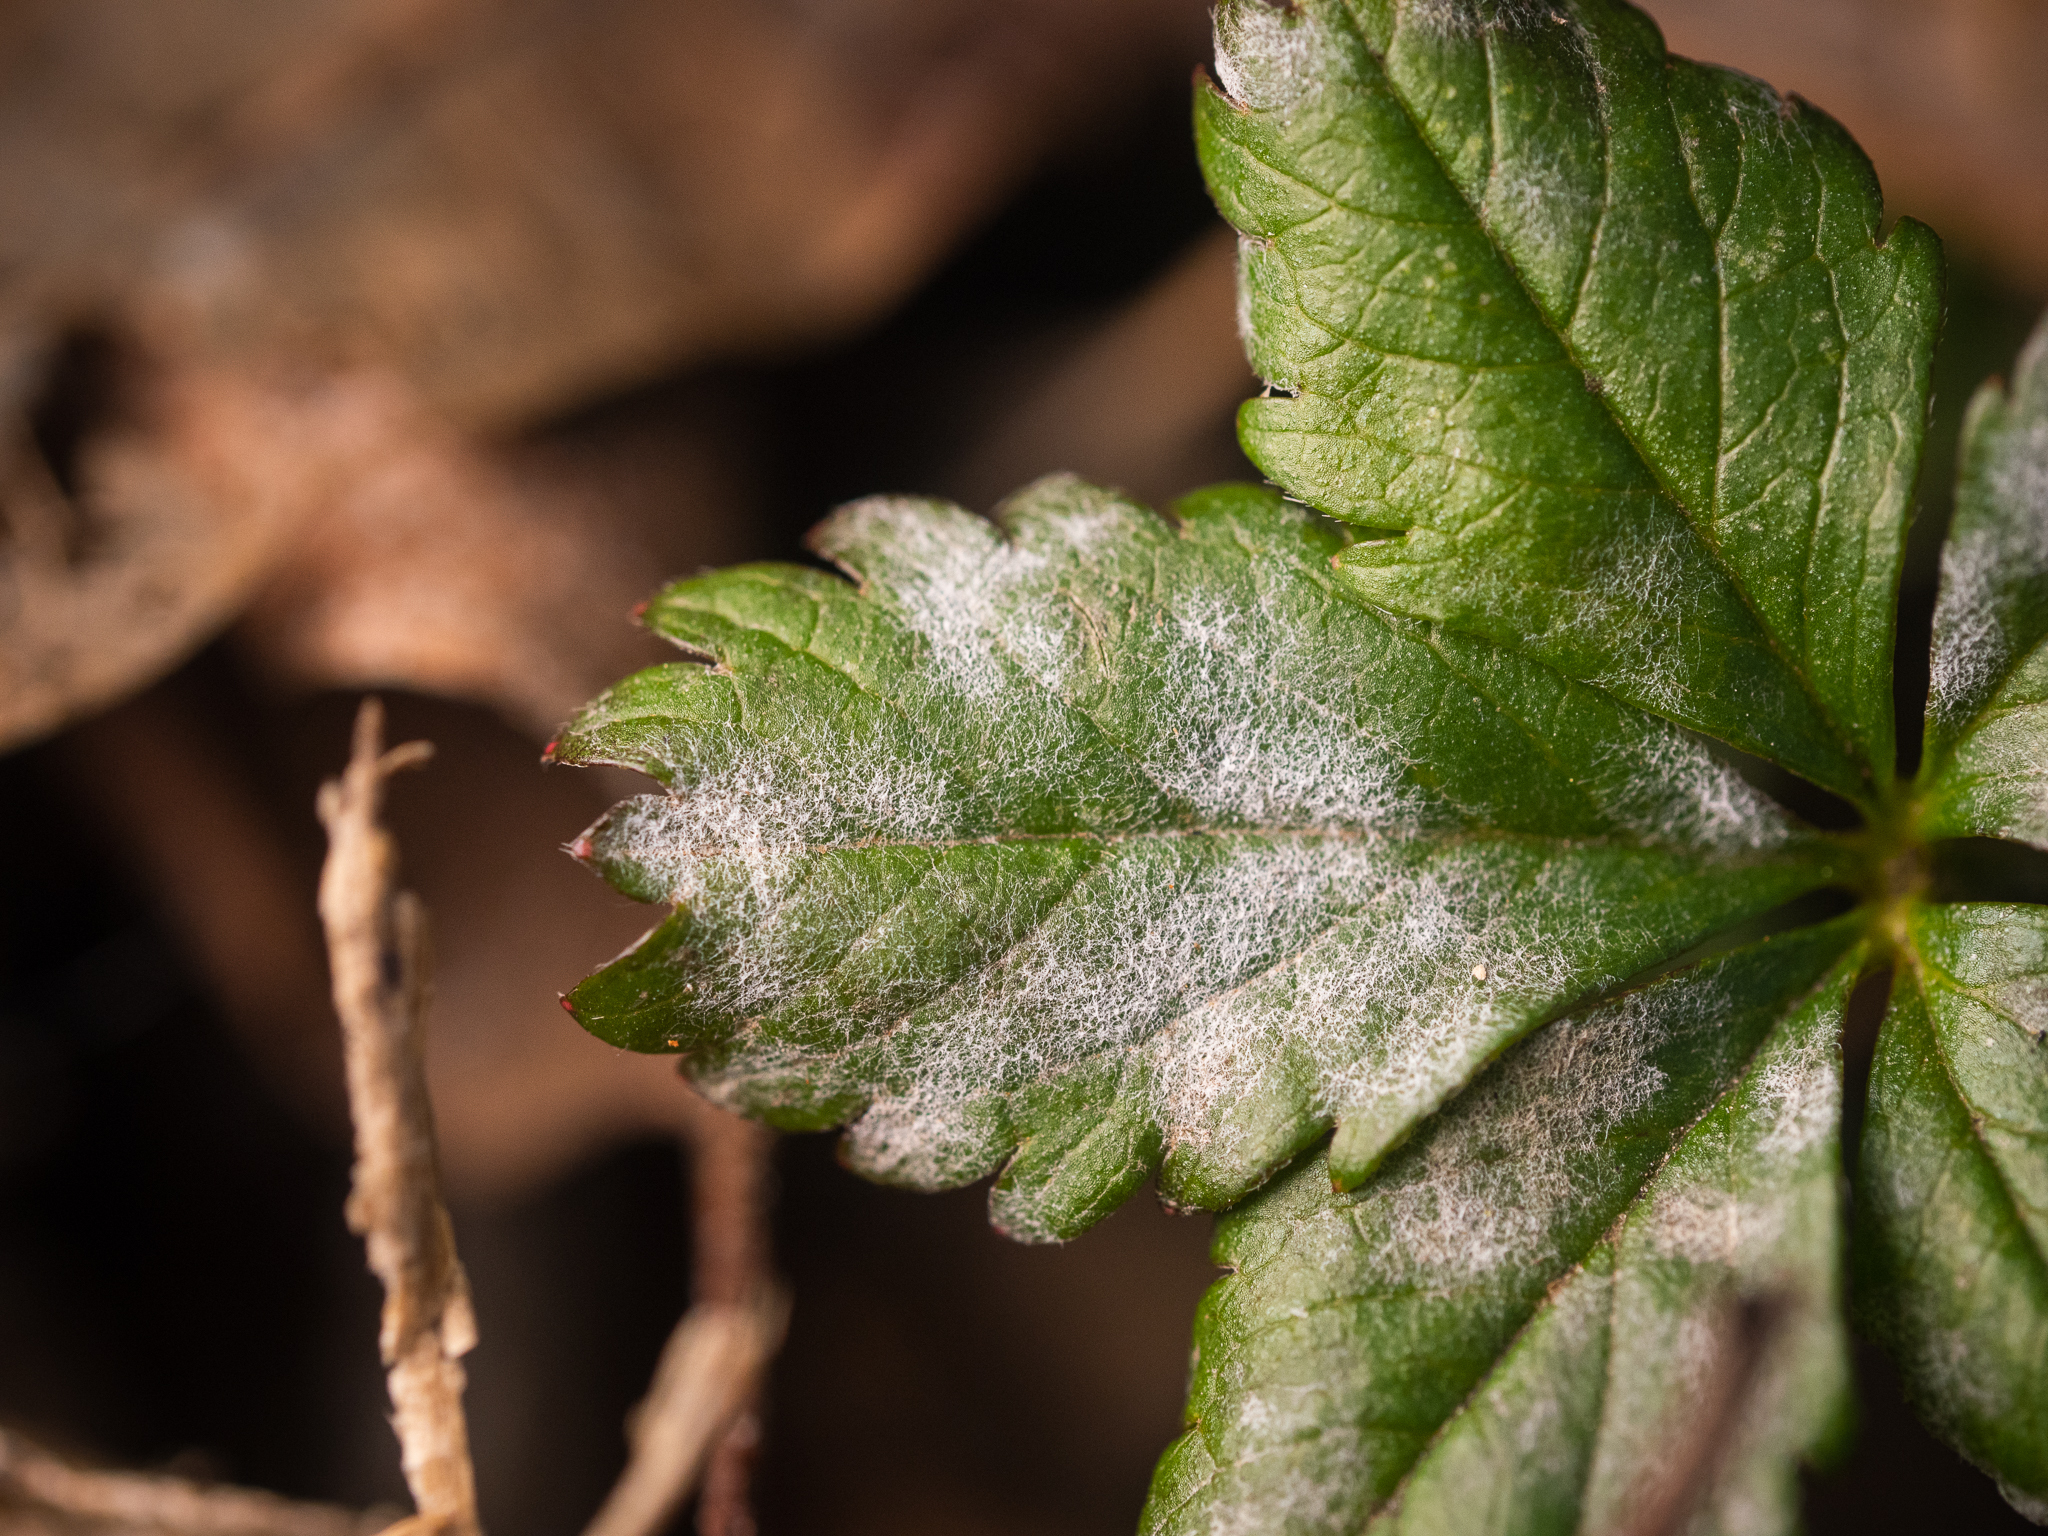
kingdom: Fungi
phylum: Ascomycota
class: Leotiomycetes
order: Helotiales
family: Erysiphaceae
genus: Podosphaera
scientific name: Podosphaera aphanis
